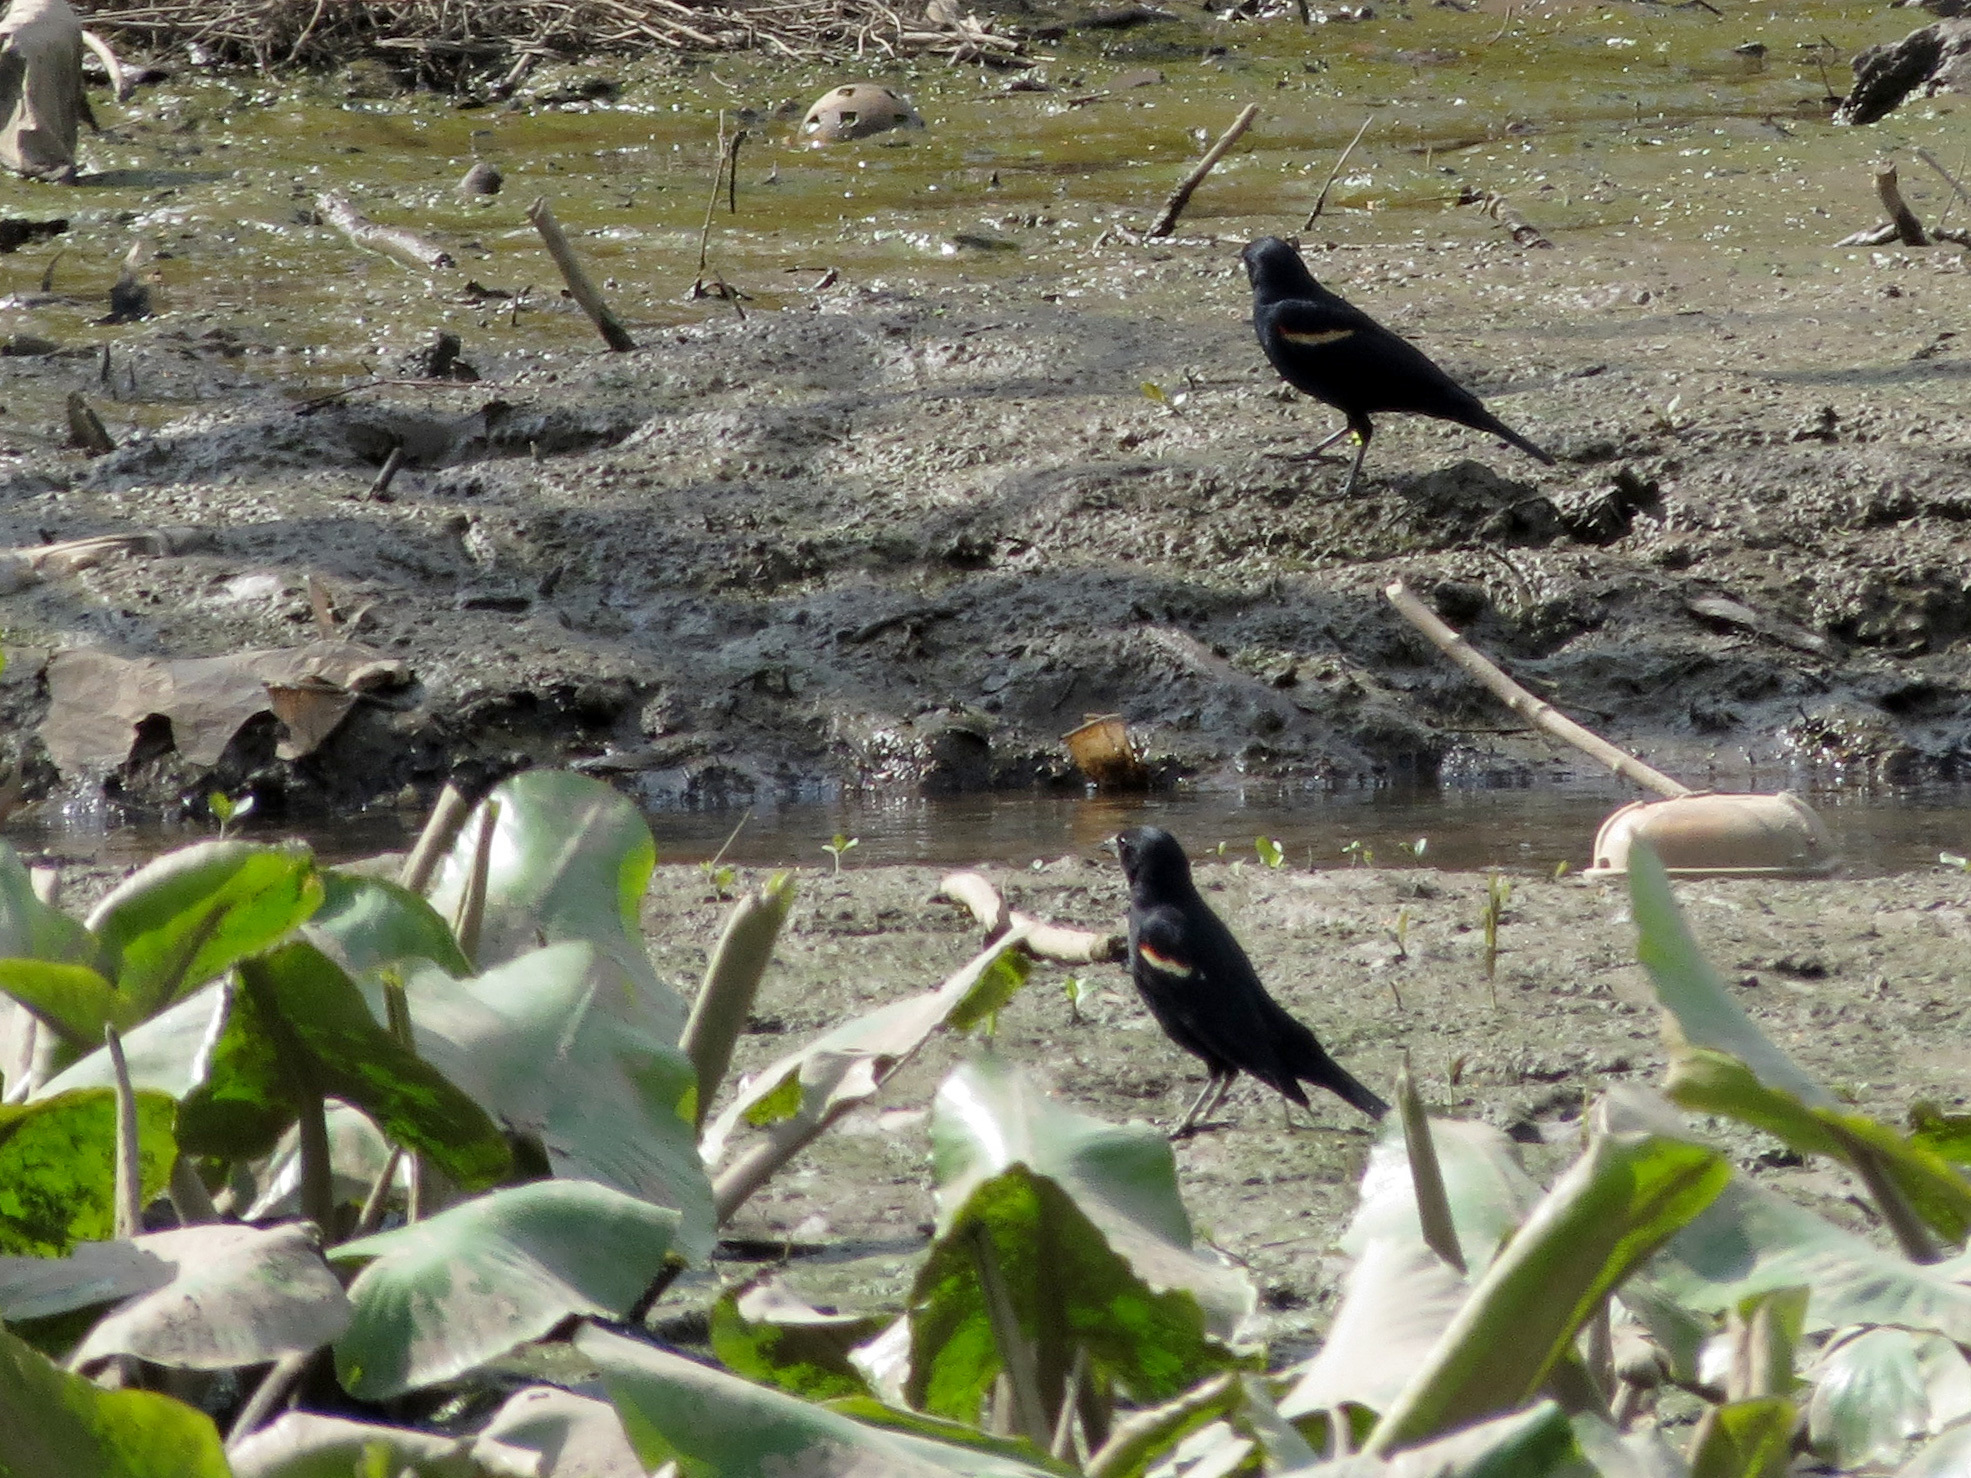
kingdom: Animalia
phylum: Chordata
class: Aves
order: Passeriformes
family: Icteridae
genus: Agelaius
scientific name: Agelaius phoeniceus
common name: Red-winged blackbird
